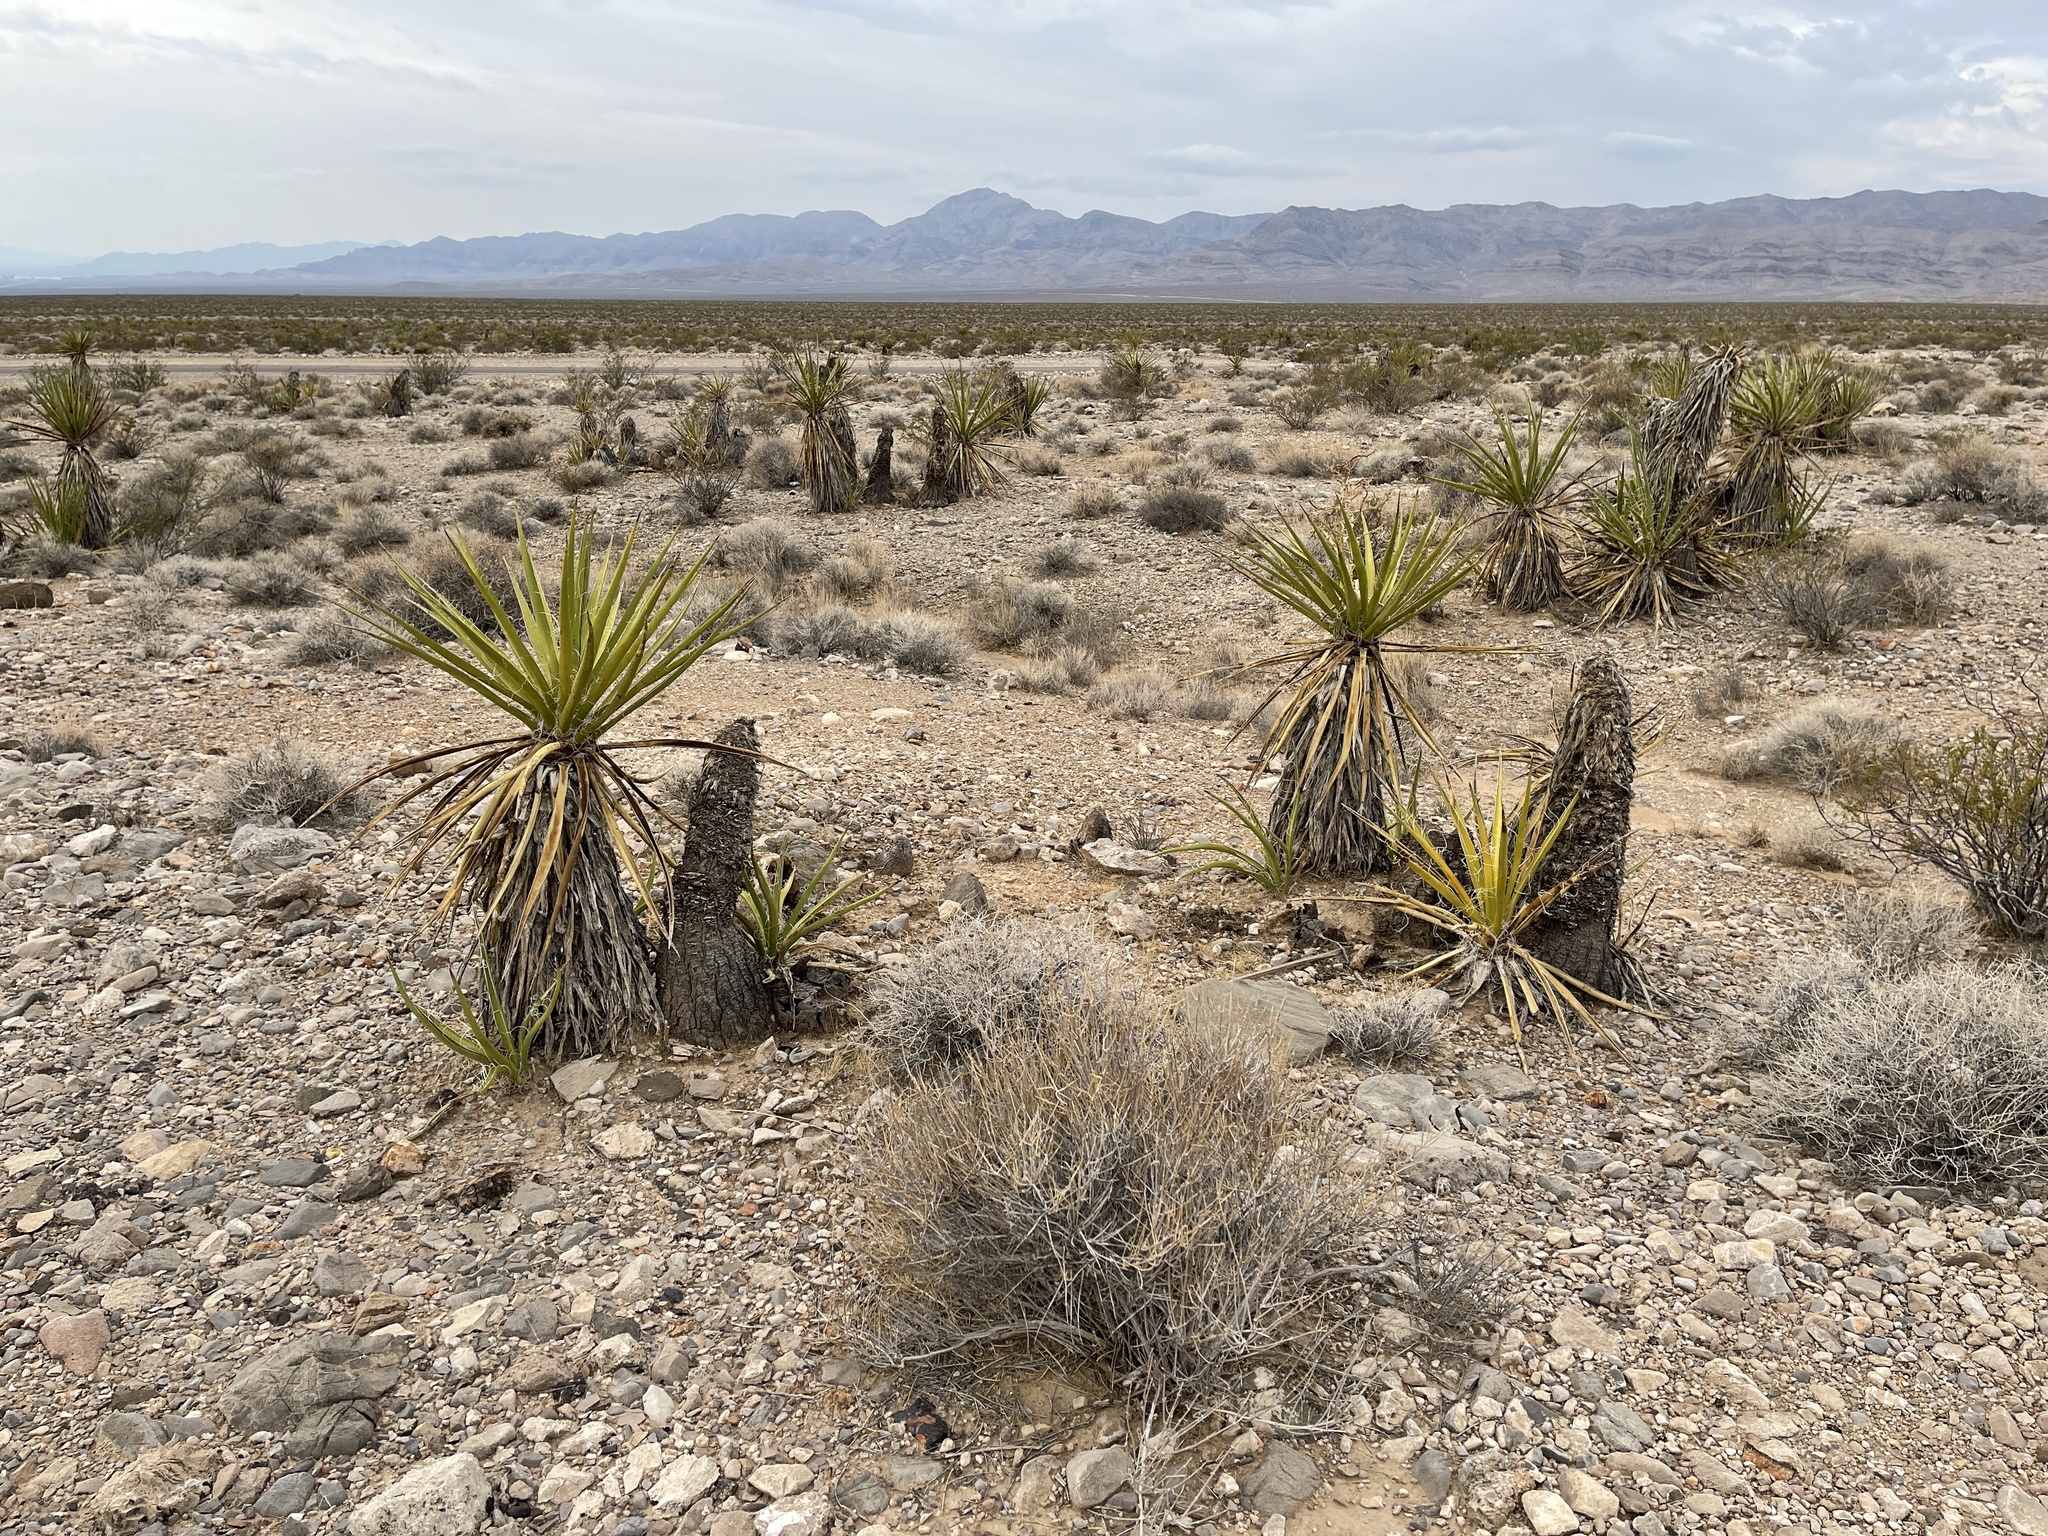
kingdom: Plantae
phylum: Tracheophyta
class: Liliopsida
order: Asparagales
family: Asparagaceae
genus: Yucca
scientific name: Yucca schidigera
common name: Mojave yucca
